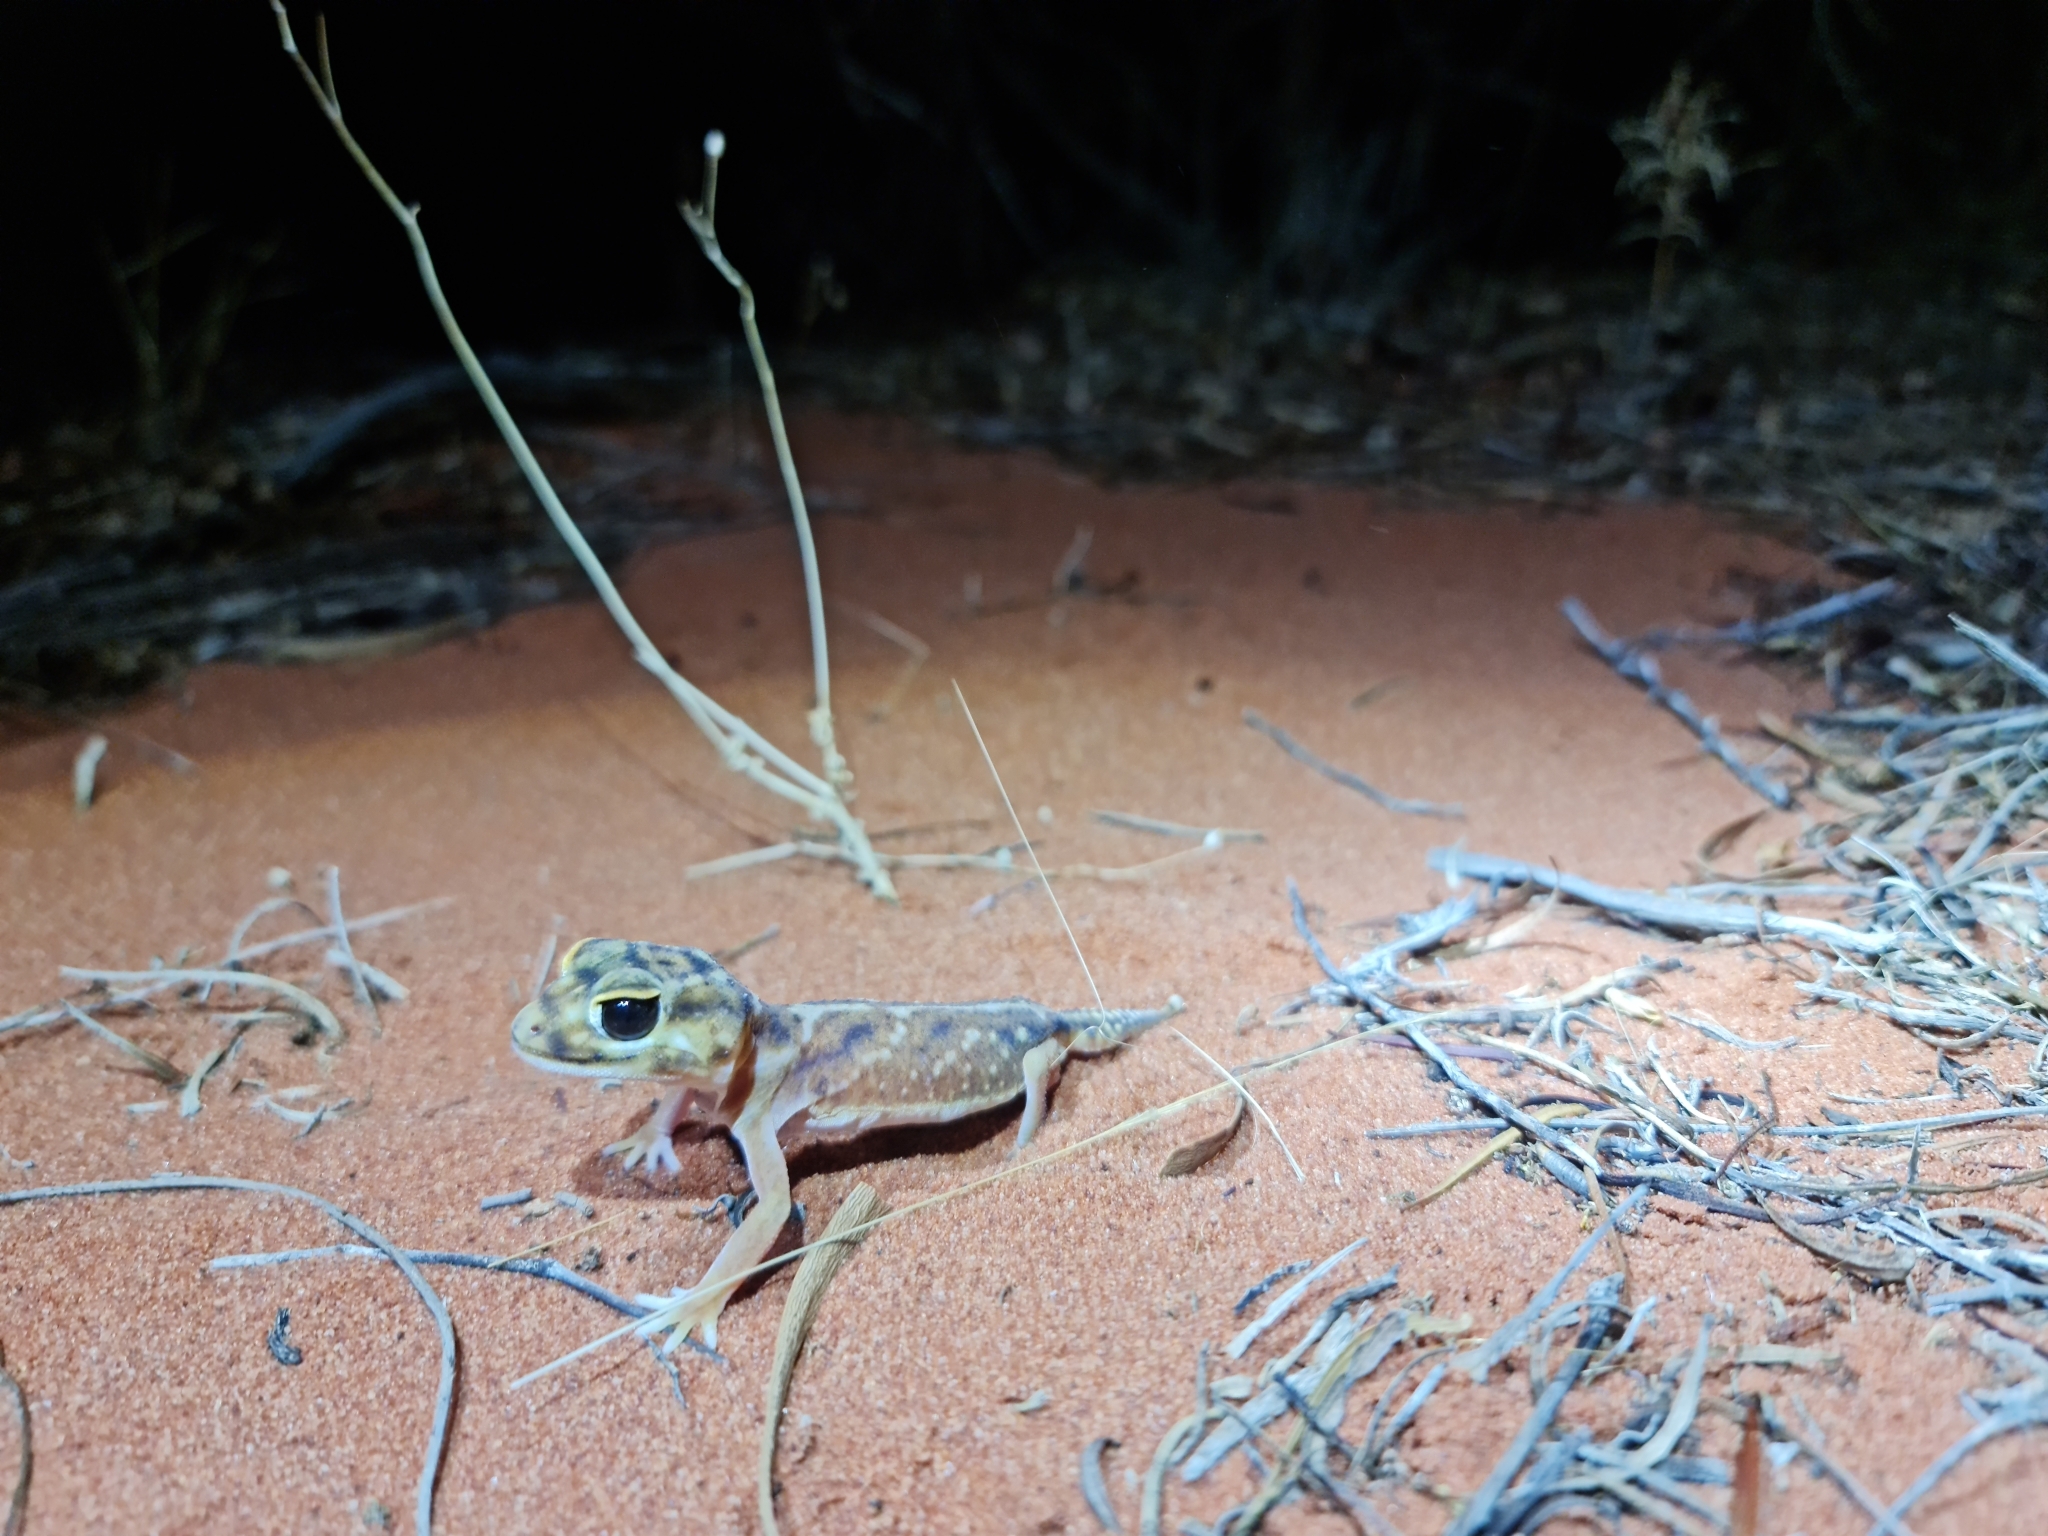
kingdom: Animalia
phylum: Chordata
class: Squamata
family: Carphodactylidae
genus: Nephrurus
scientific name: Nephrurus deleani
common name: Pernatty knob-tail
